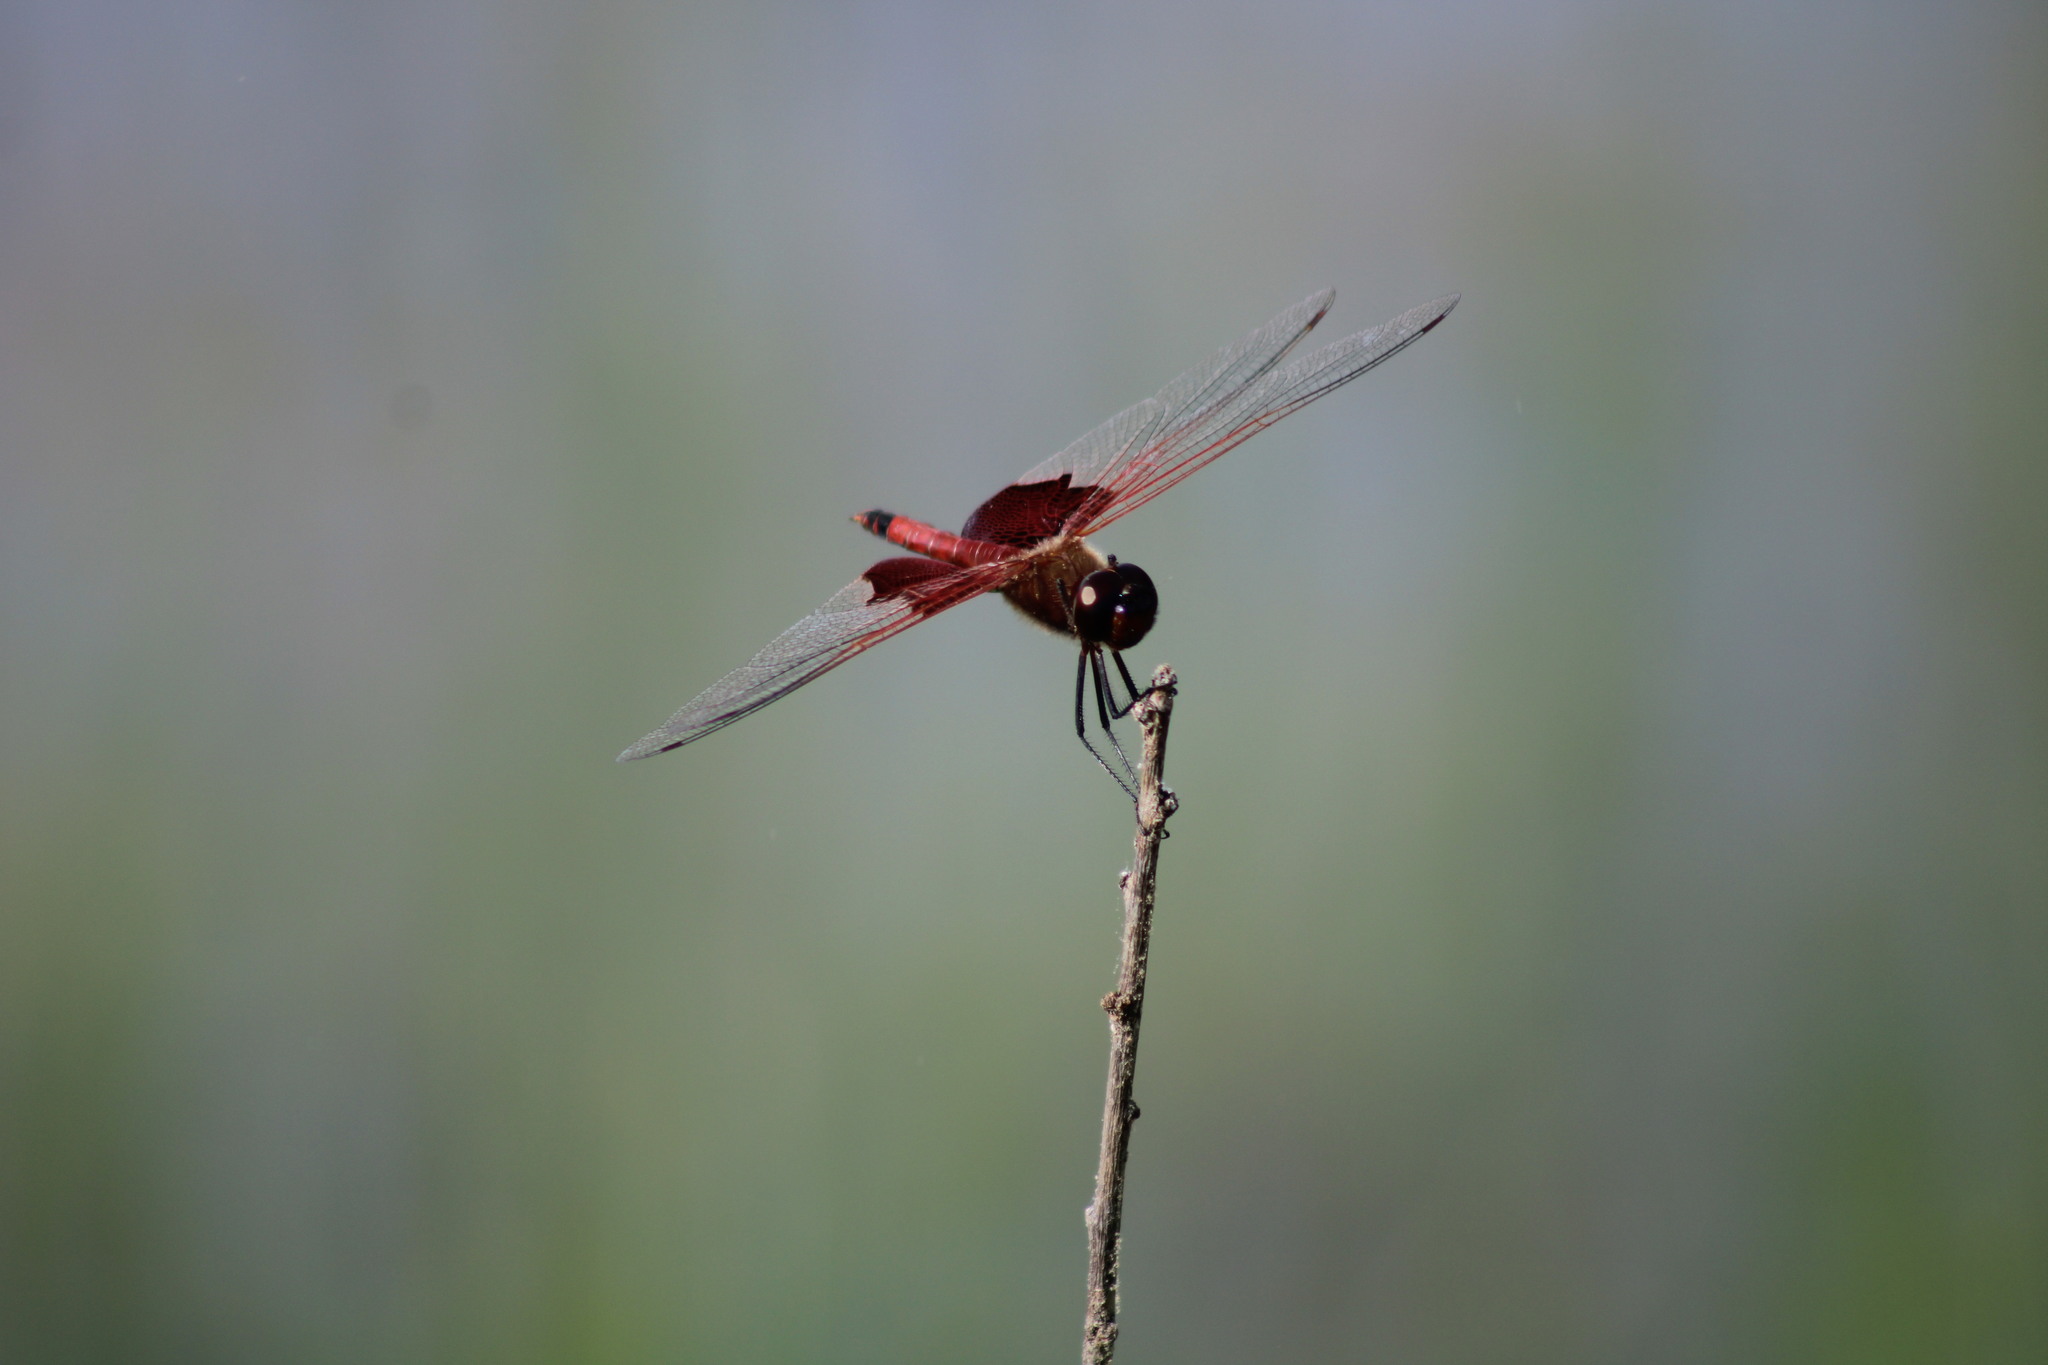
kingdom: Animalia
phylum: Arthropoda
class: Insecta
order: Odonata
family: Libellulidae
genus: Tramea
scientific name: Tramea carolina
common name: Carolina saddlebags
